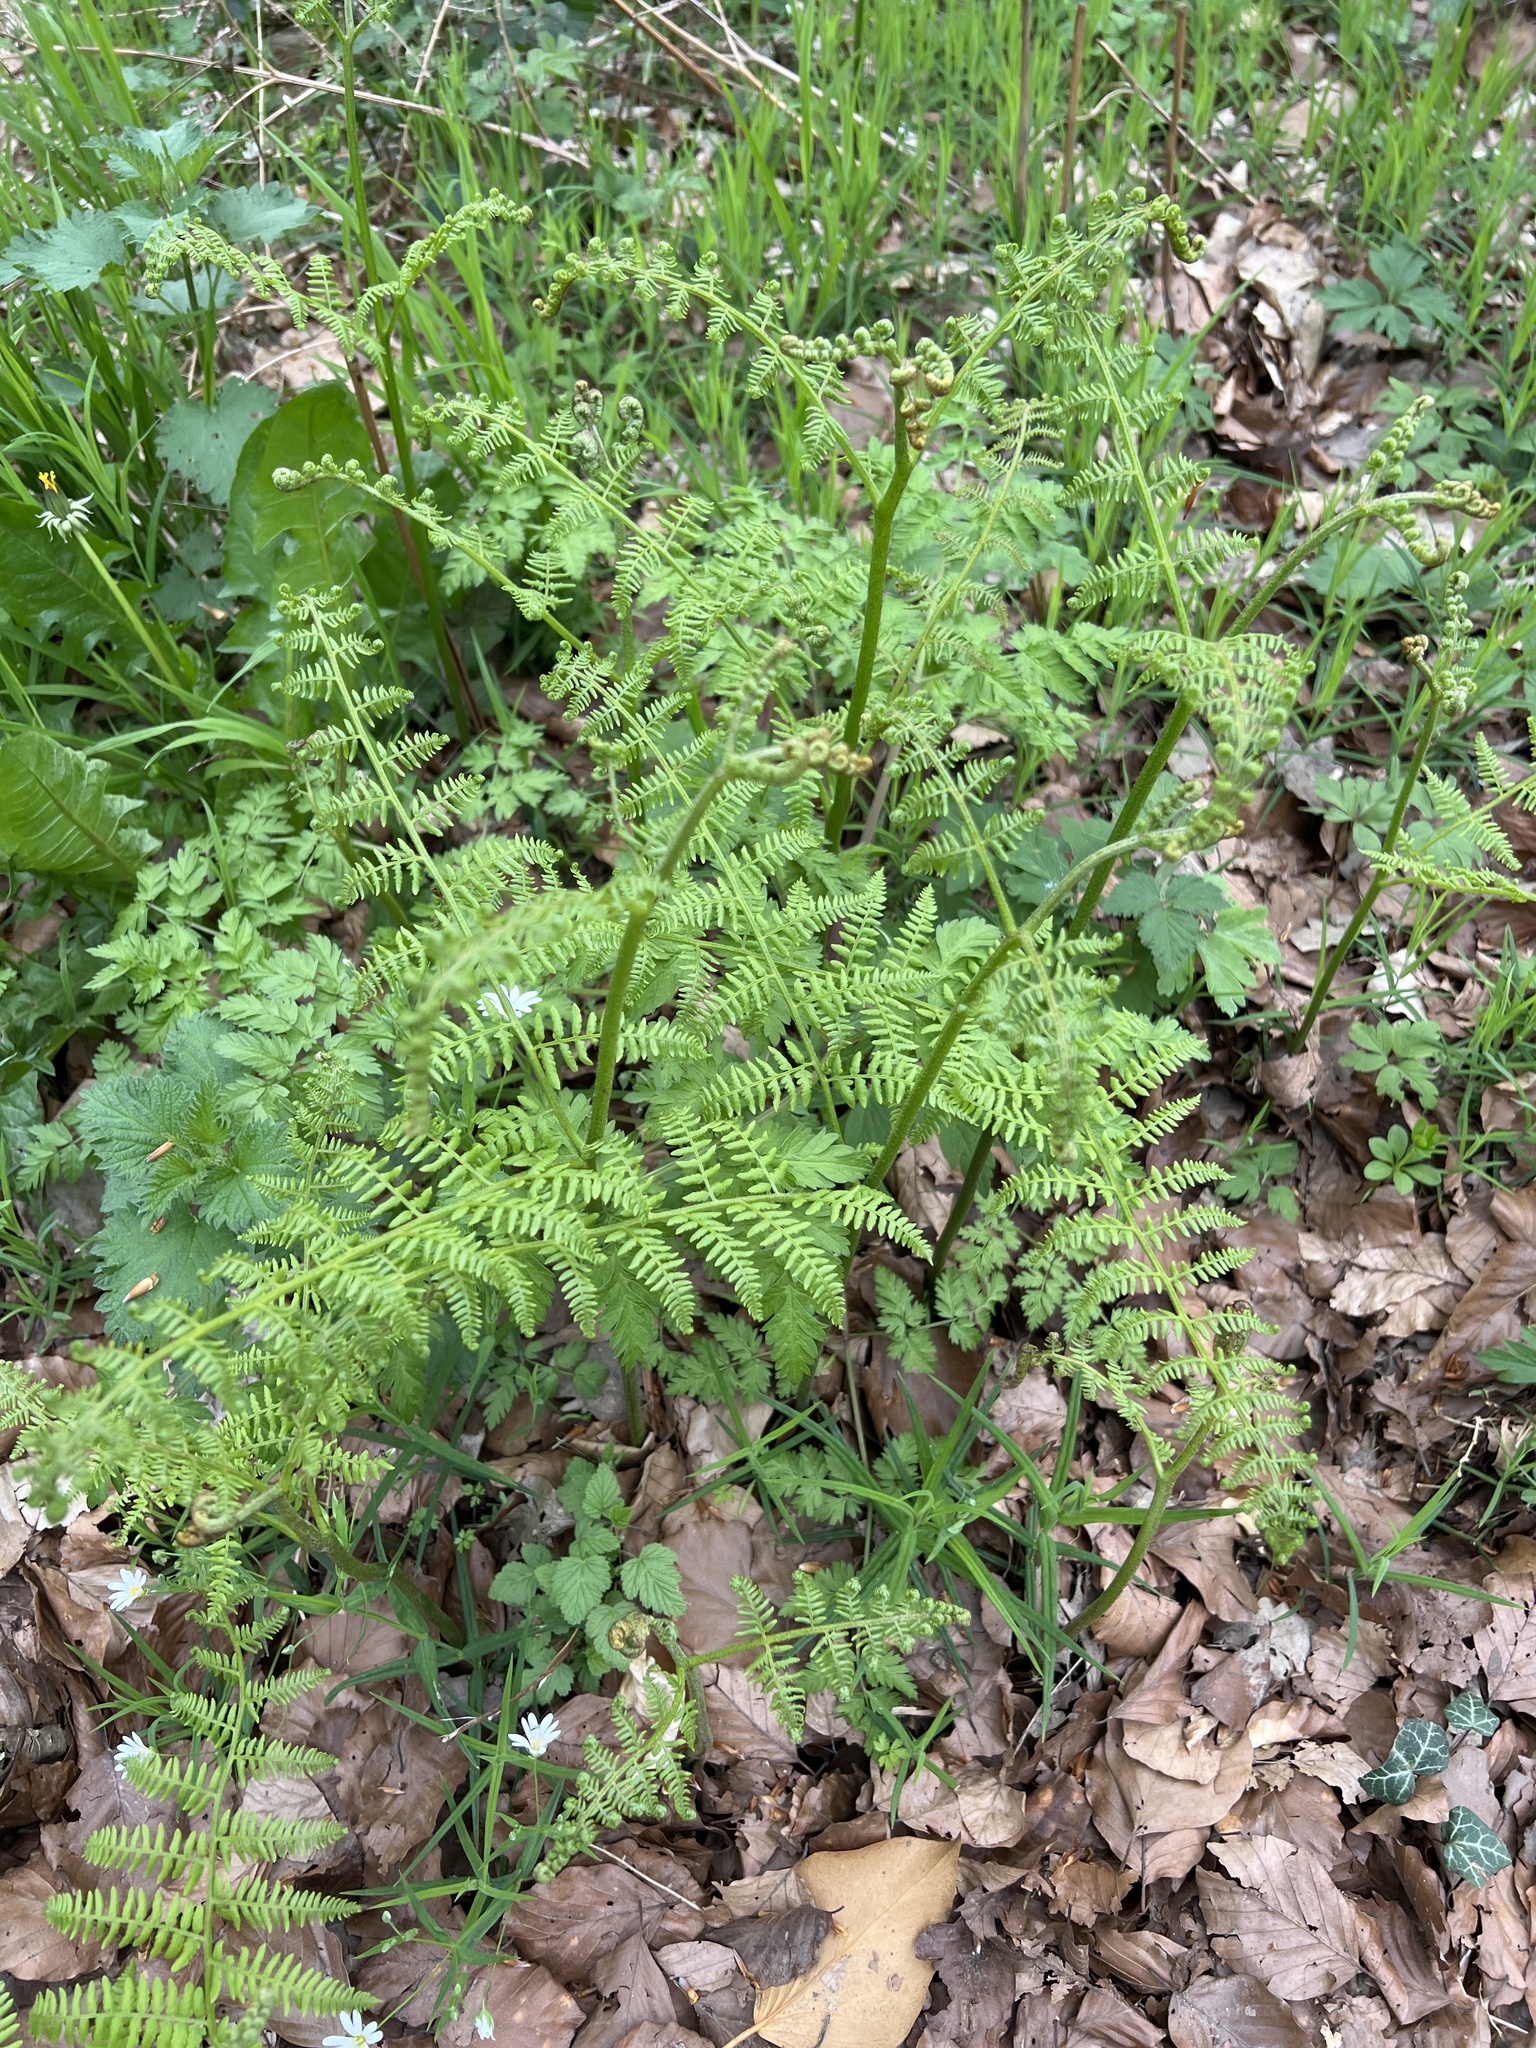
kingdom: Plantae
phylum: Tracheophyta
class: Polypodiopsida
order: Polypodiales
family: Dennstaedtiaceae
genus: Pteridium
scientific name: Pteridium aquilinum
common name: Bracken
